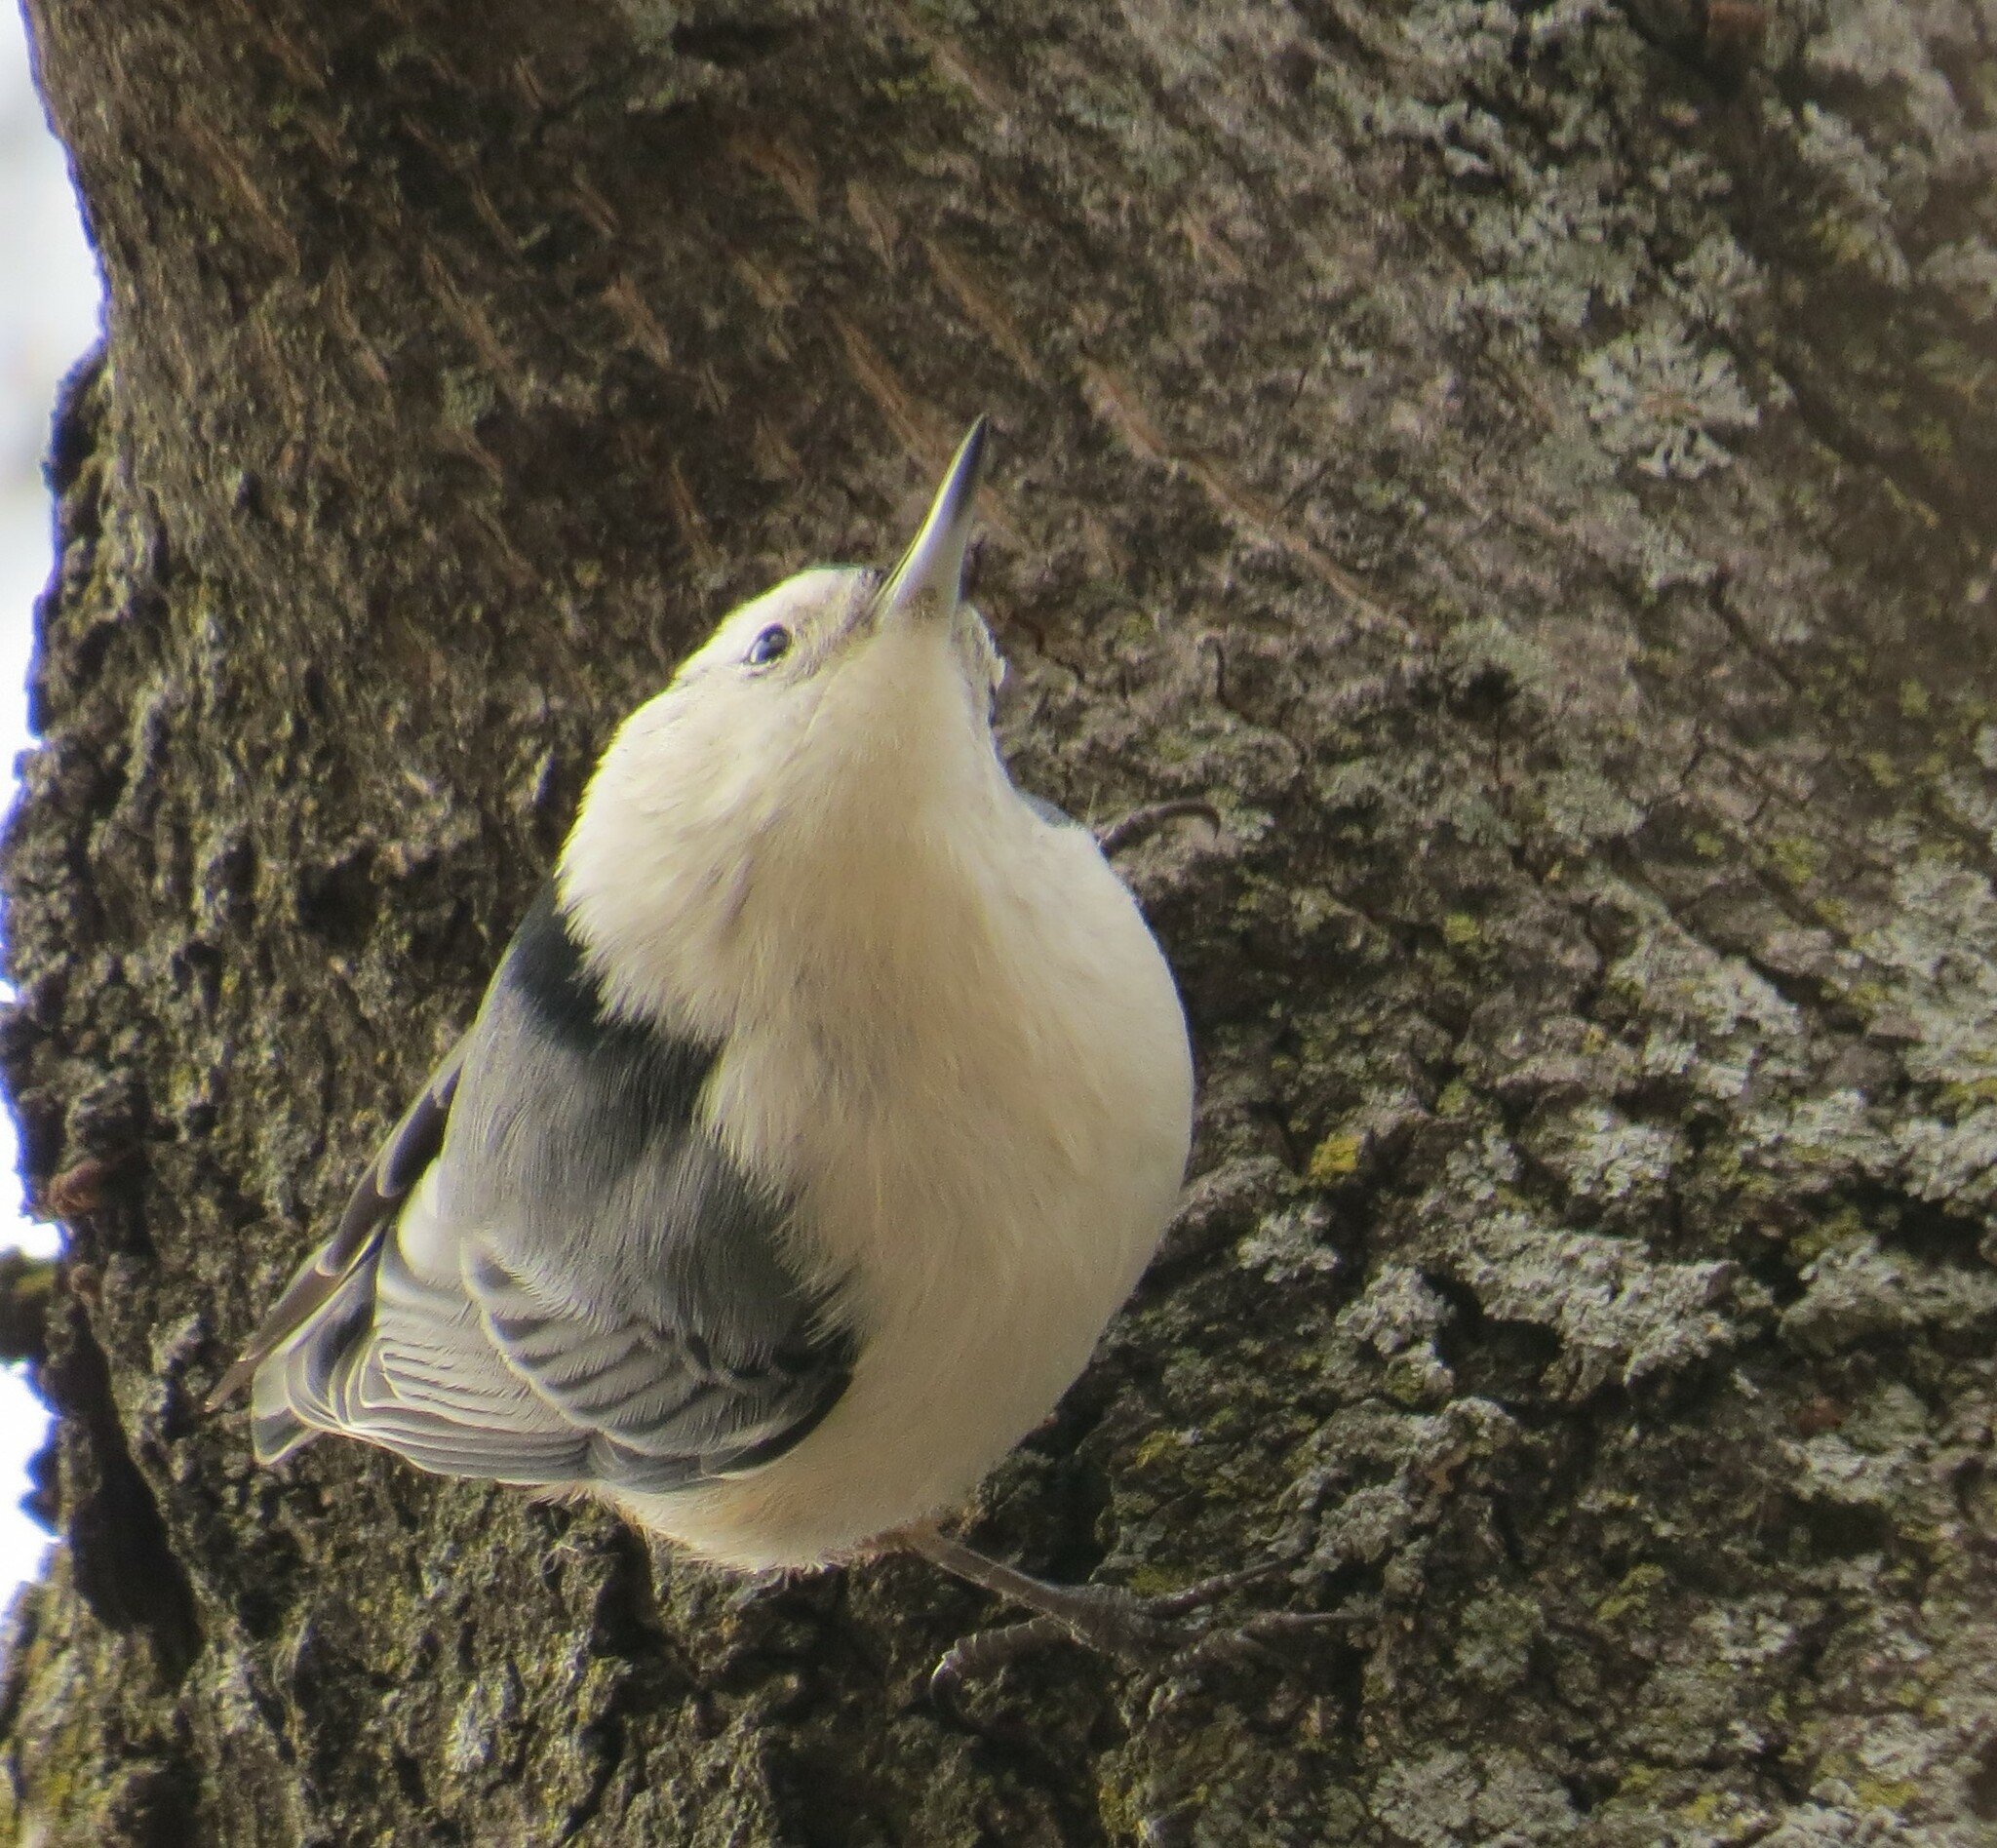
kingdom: Animalia
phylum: Chordata
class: Aves
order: Passeriformes
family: Sittidae
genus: Sitta
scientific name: Sitta carolinensis
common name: White-breasted nuthatch
